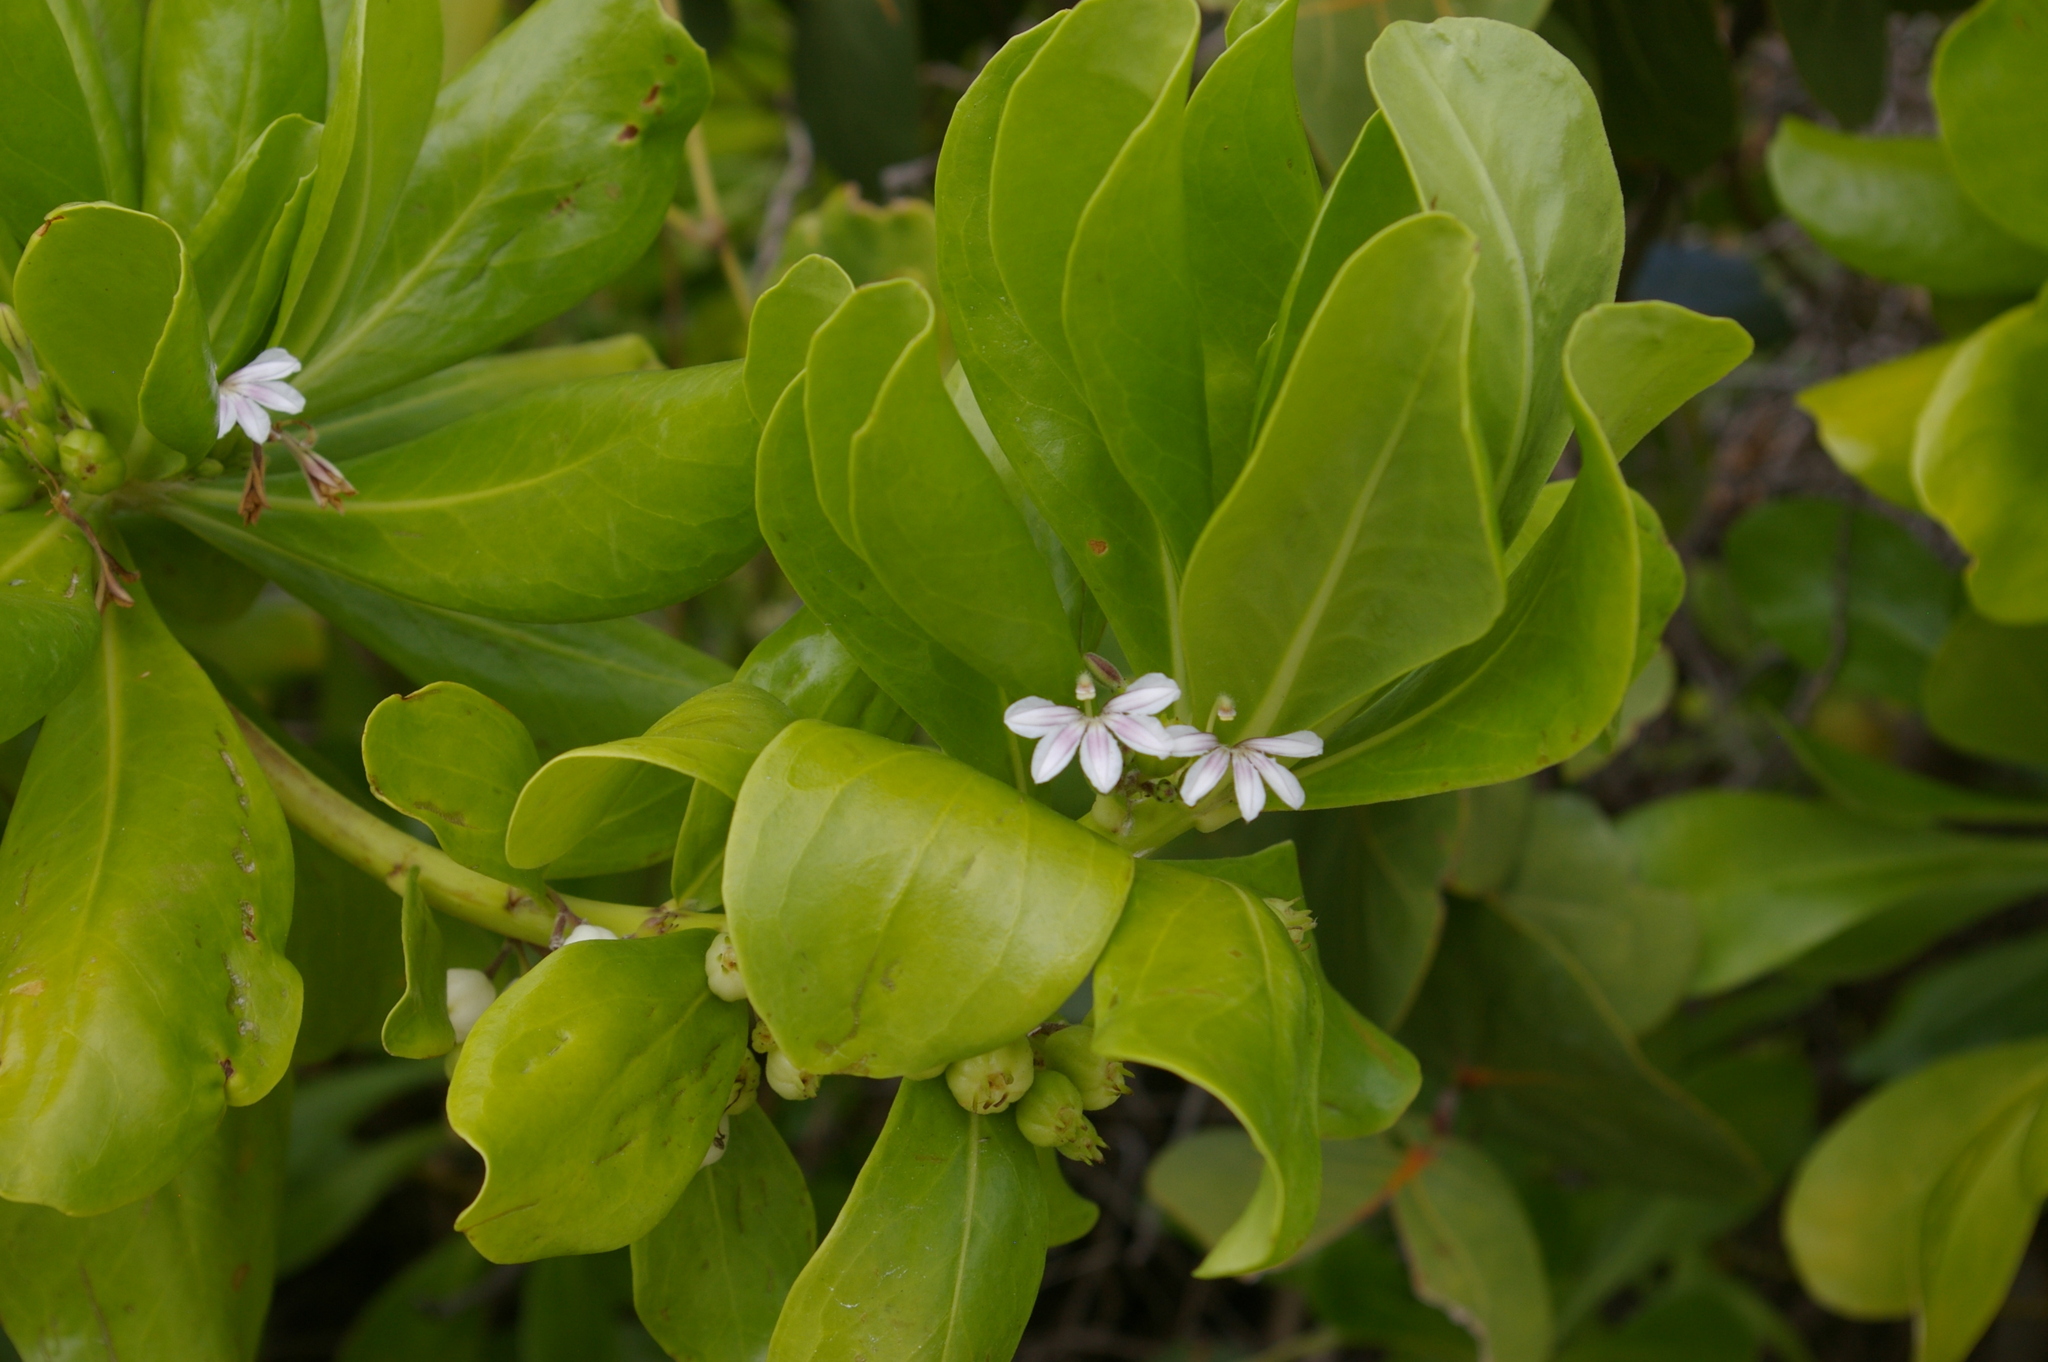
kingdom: Plantae
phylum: Tracheophyta
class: Magnoliopsida
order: Asterales
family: Goodeniaceae
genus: Scaevola
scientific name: Scaevola taccada
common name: Sea lettucetree
